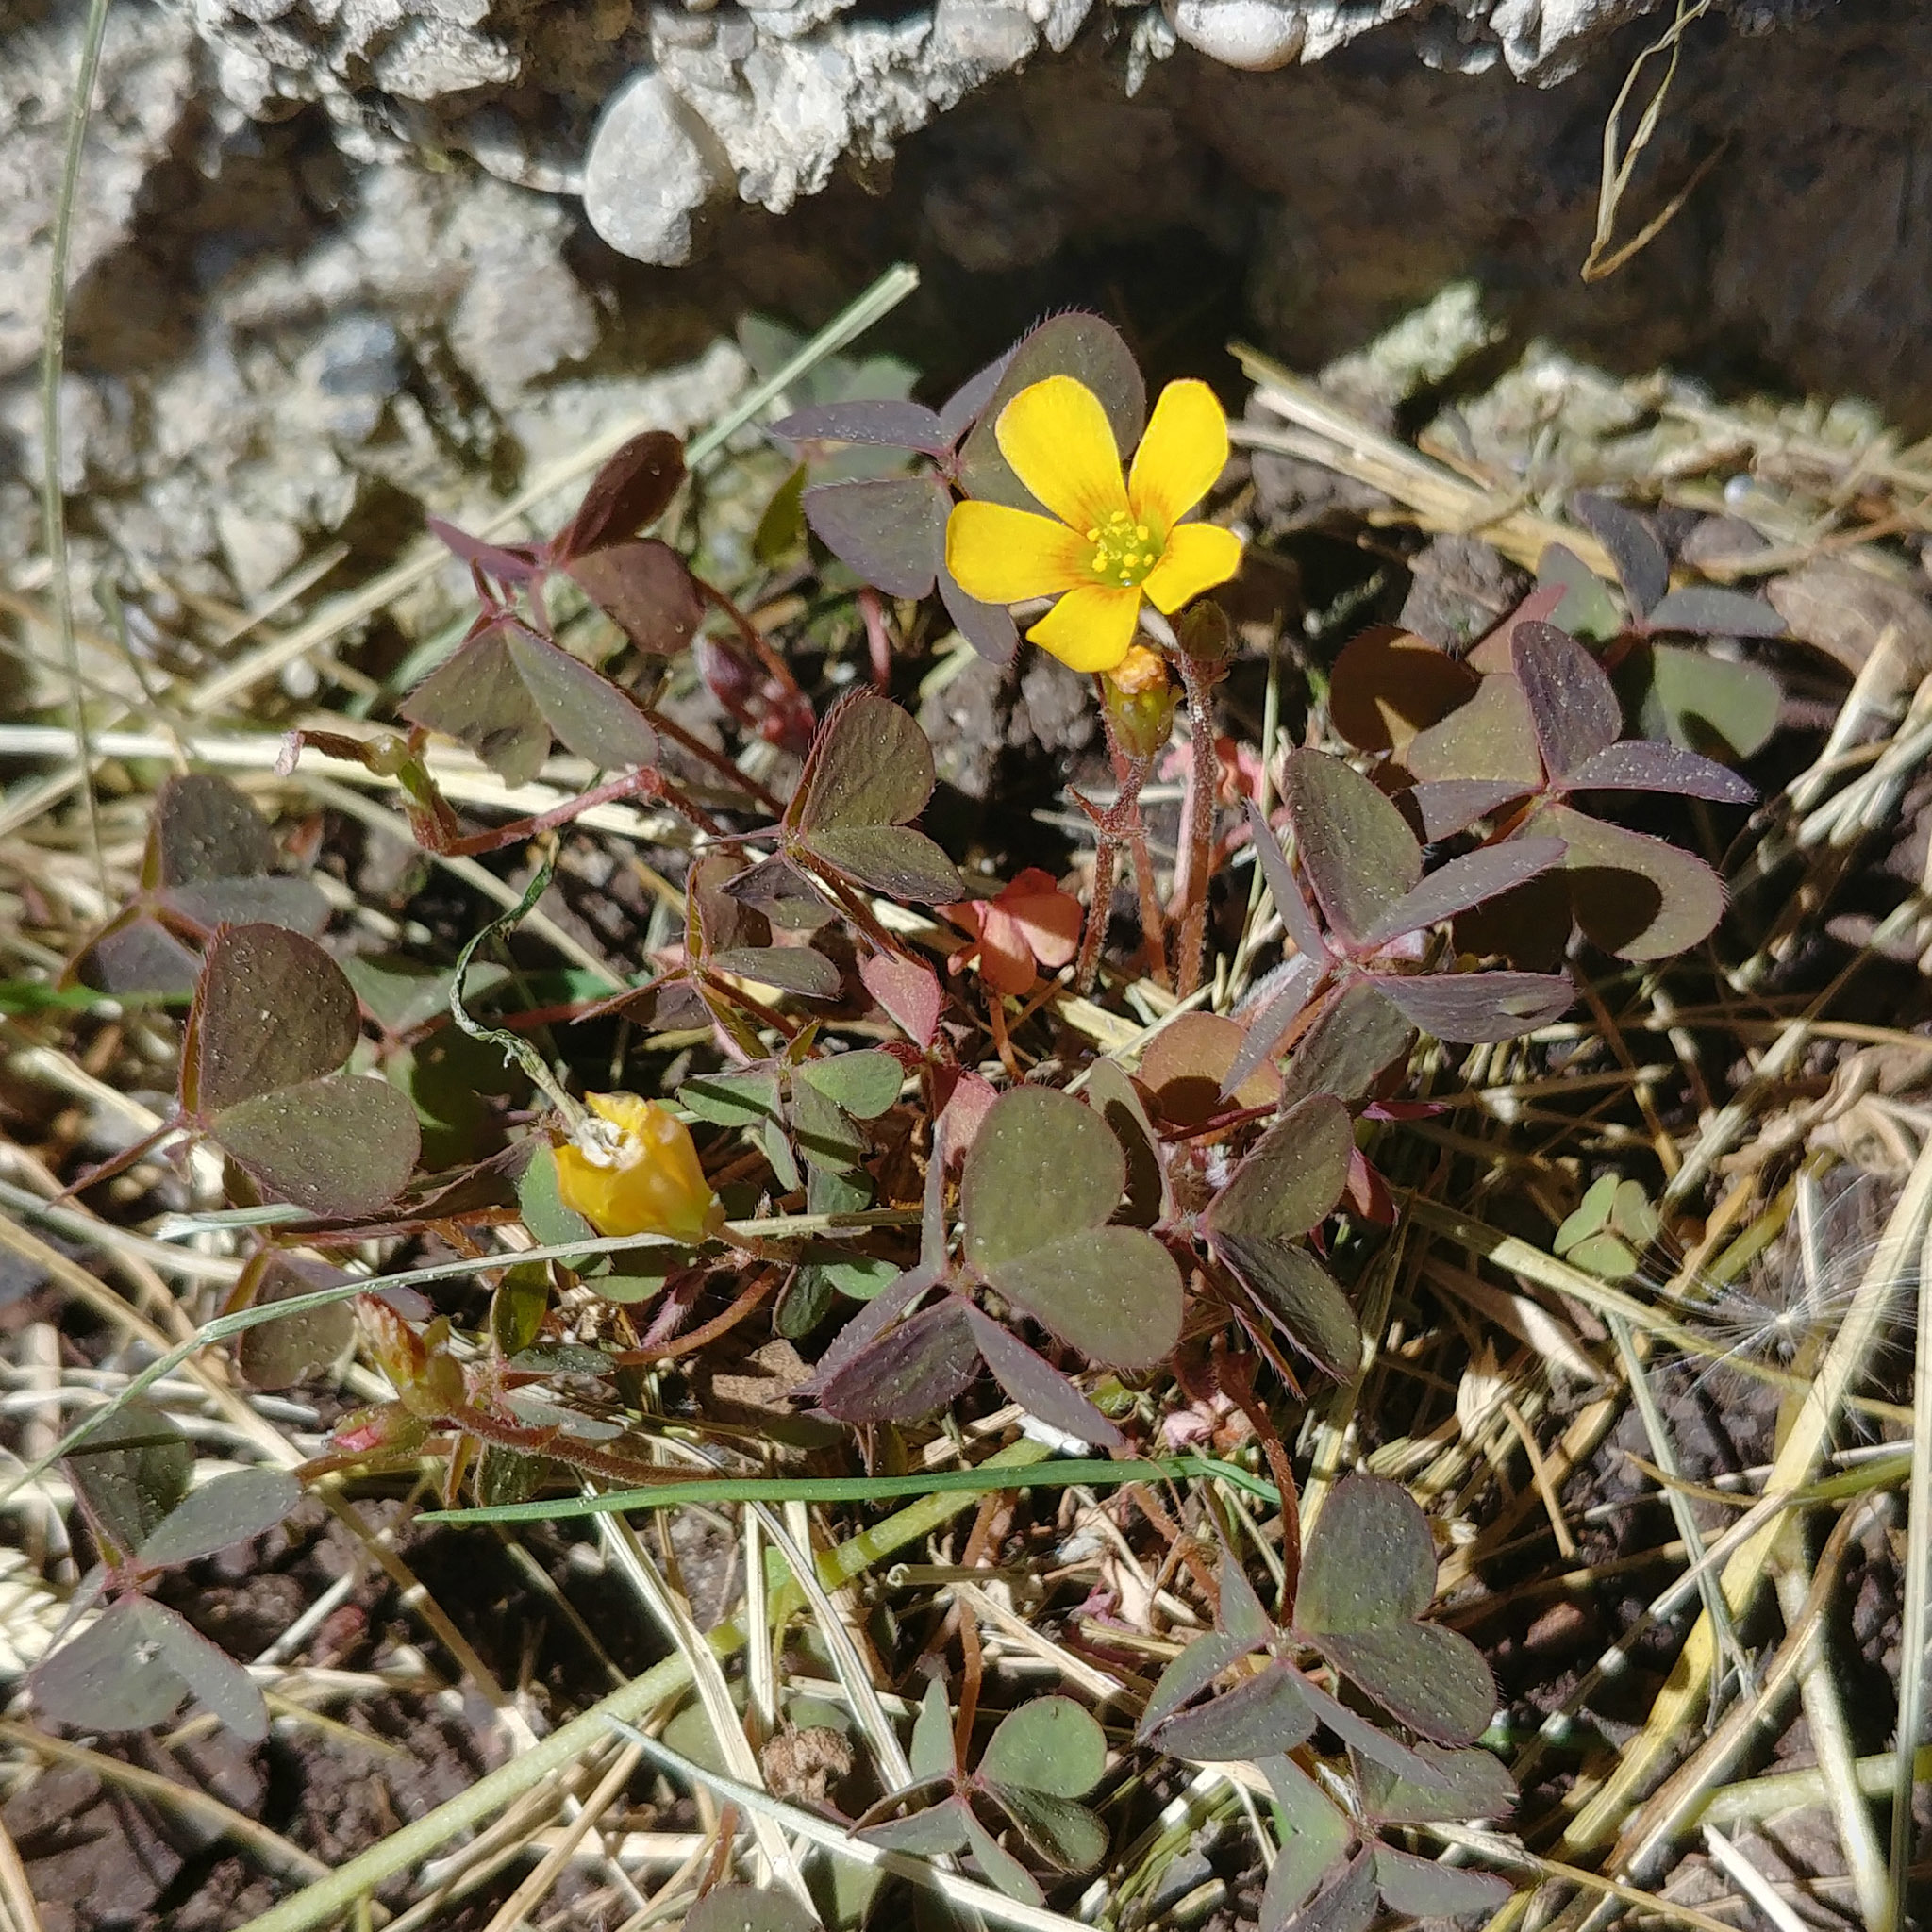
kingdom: Plantae
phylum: Tracheophyta
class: Magnoliopsida
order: Oxalidales
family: Oxalidaceae
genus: Oxalis
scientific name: Oxalis corniculata
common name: Procumbent yellow-sorrel
